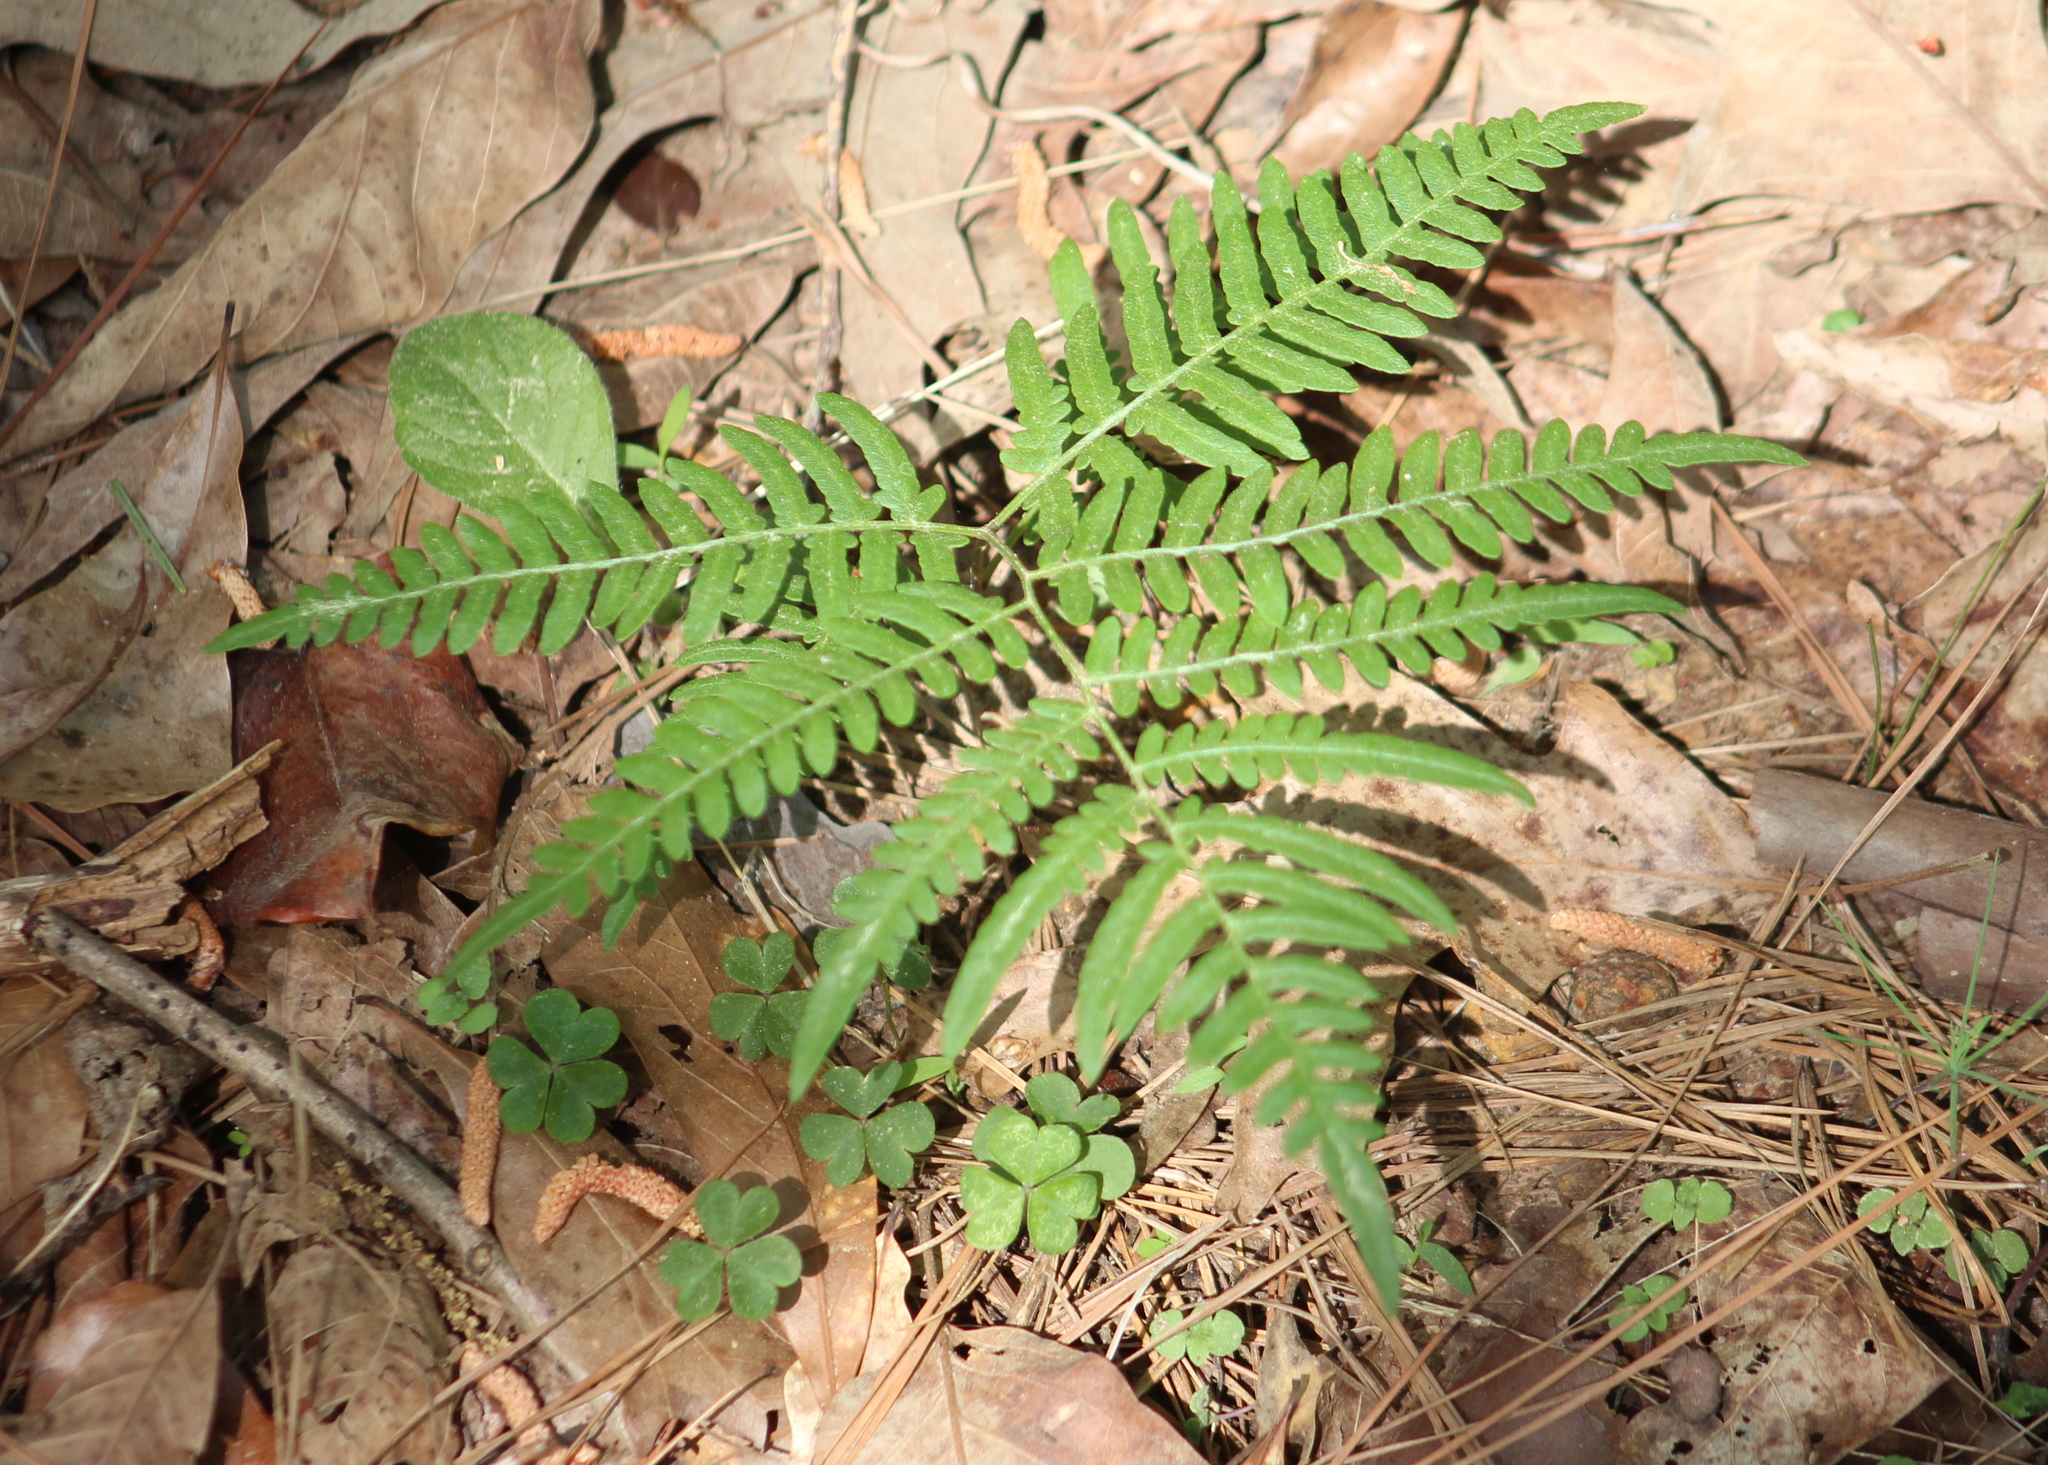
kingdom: Plantae
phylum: Tracheophyta
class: Polypodiopsida
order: Polypodiales
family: Dennstaedtiaceae
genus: Pteridium
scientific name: Pteridium aquilinum
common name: Bracken
